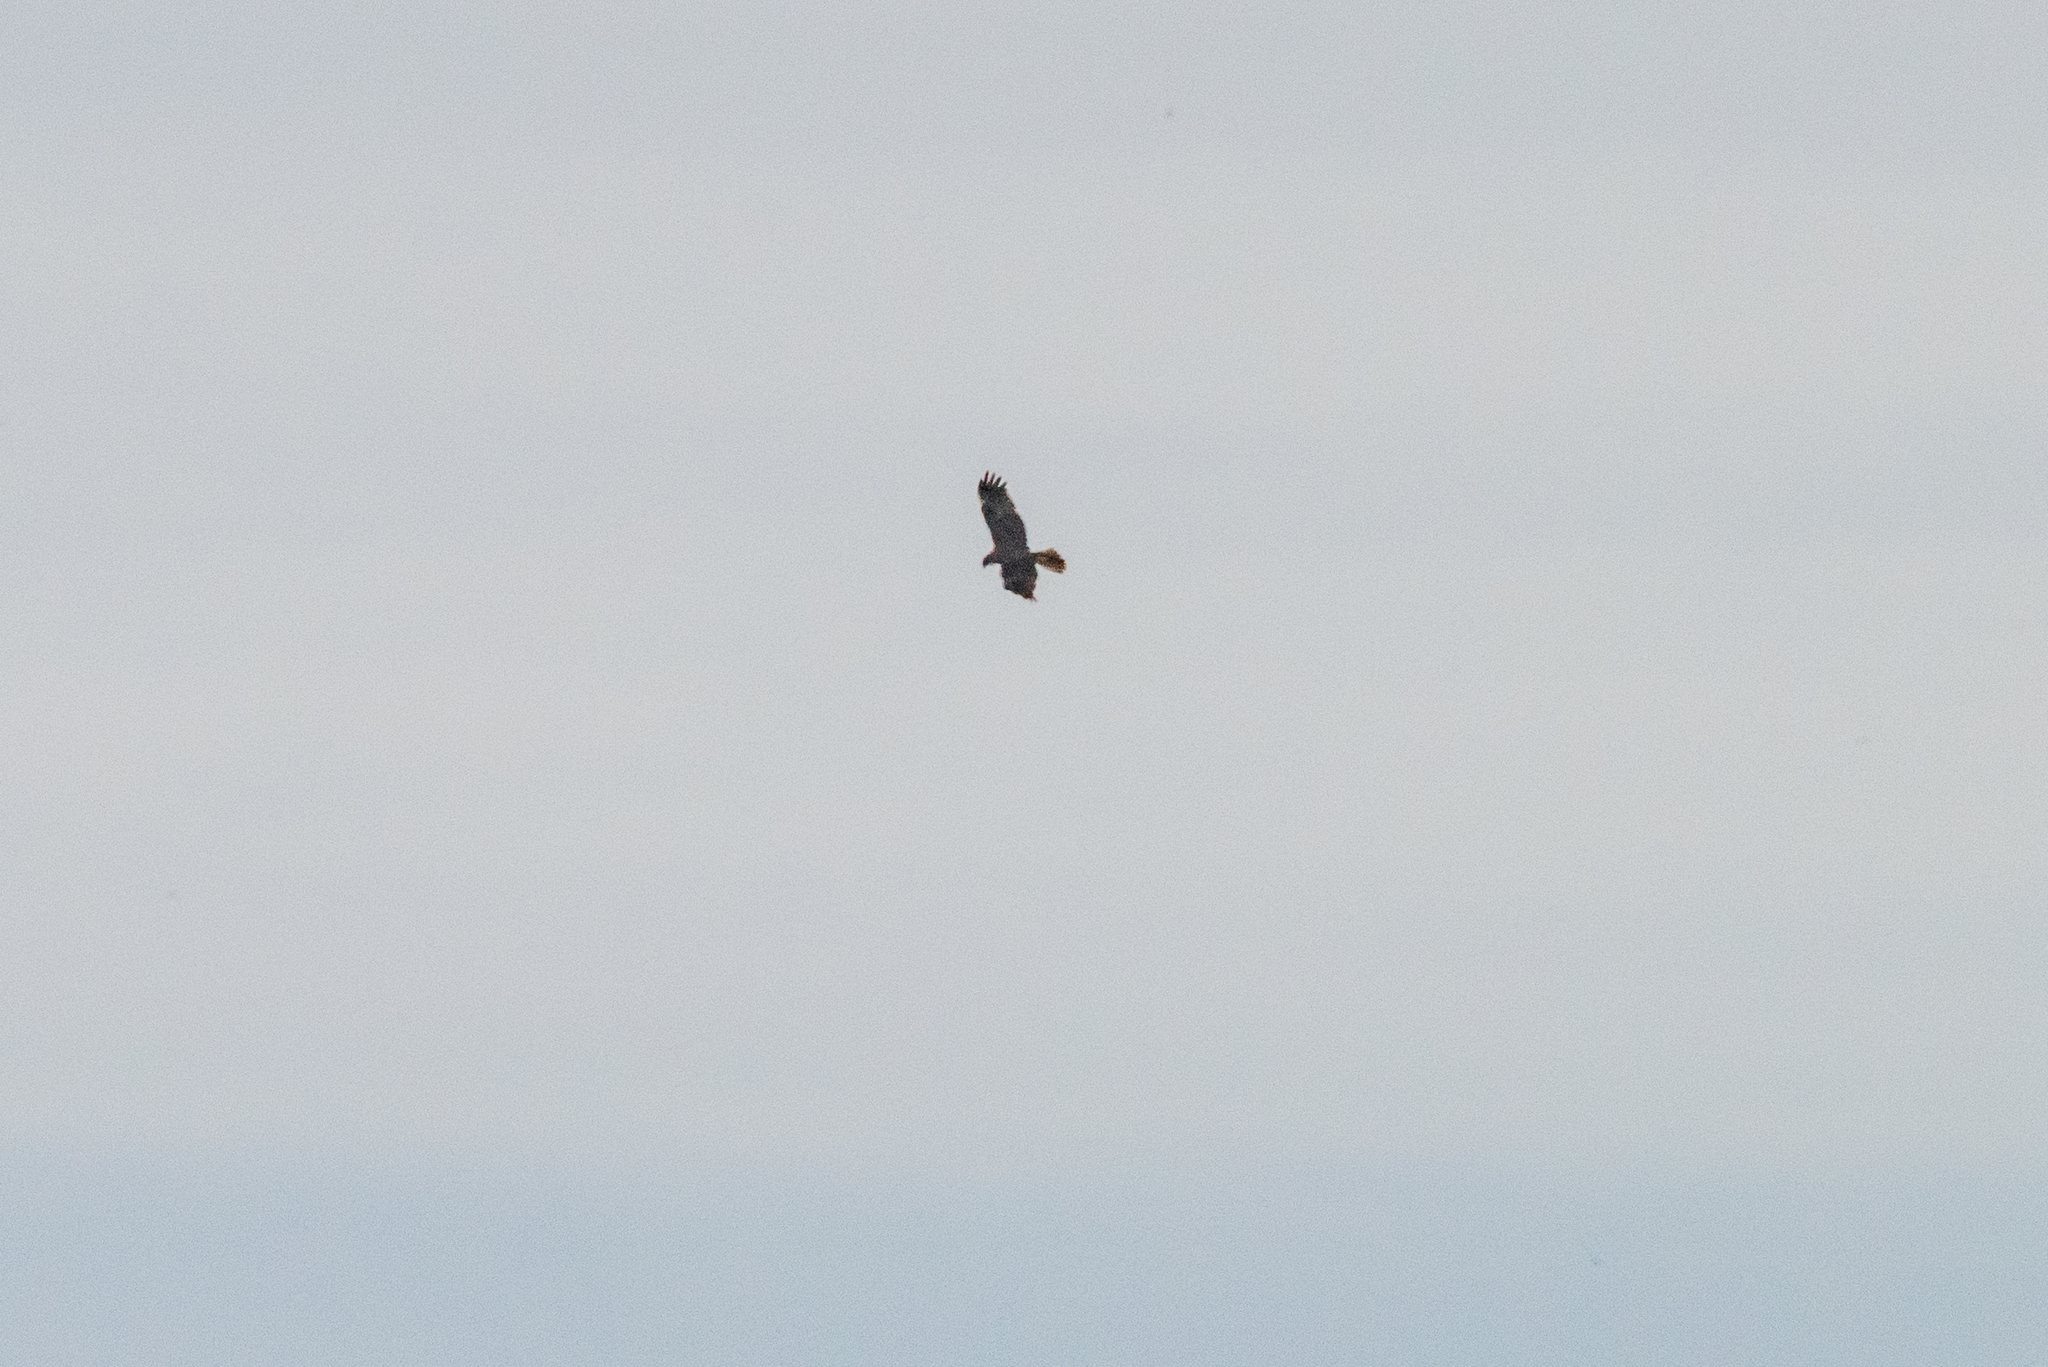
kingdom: Animalia
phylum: Chordata
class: Aves
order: Accipitriformes
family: Accipitridae
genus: Circus
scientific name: Circus aeruginosus
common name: Western marsh harrier
